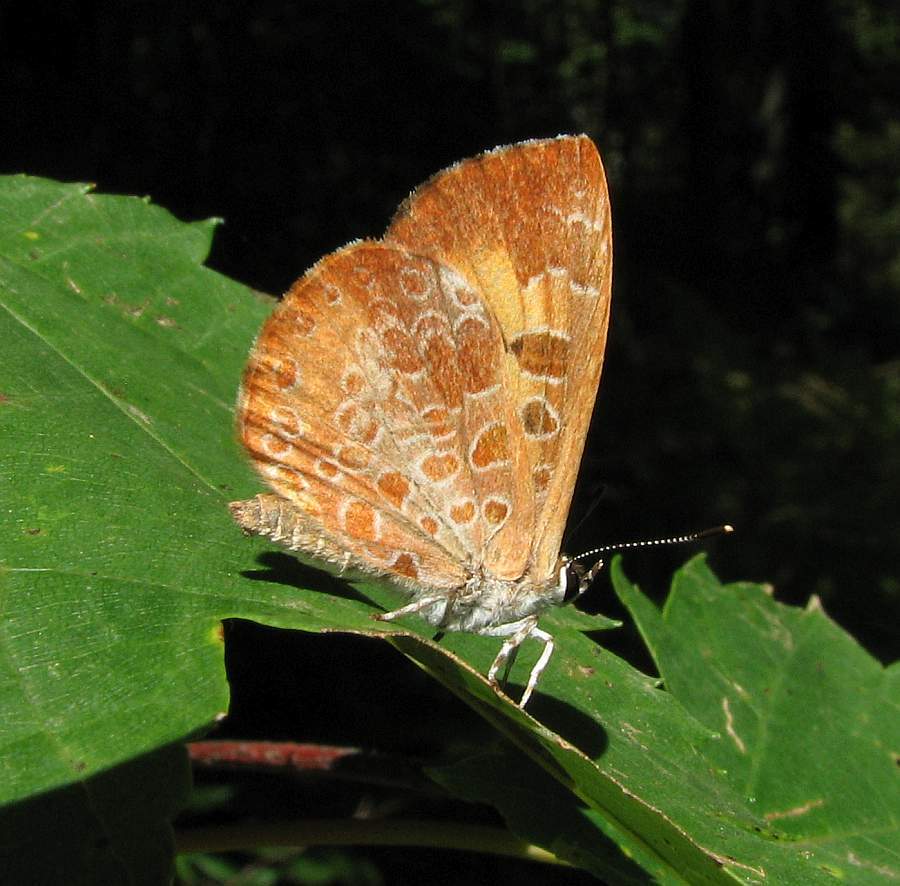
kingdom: Animalia
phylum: Arthropoda
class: Insecta
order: Lepidoptera
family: Lycaenidae
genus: Feniseca
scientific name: Feniseca tarquinius
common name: Harvester
